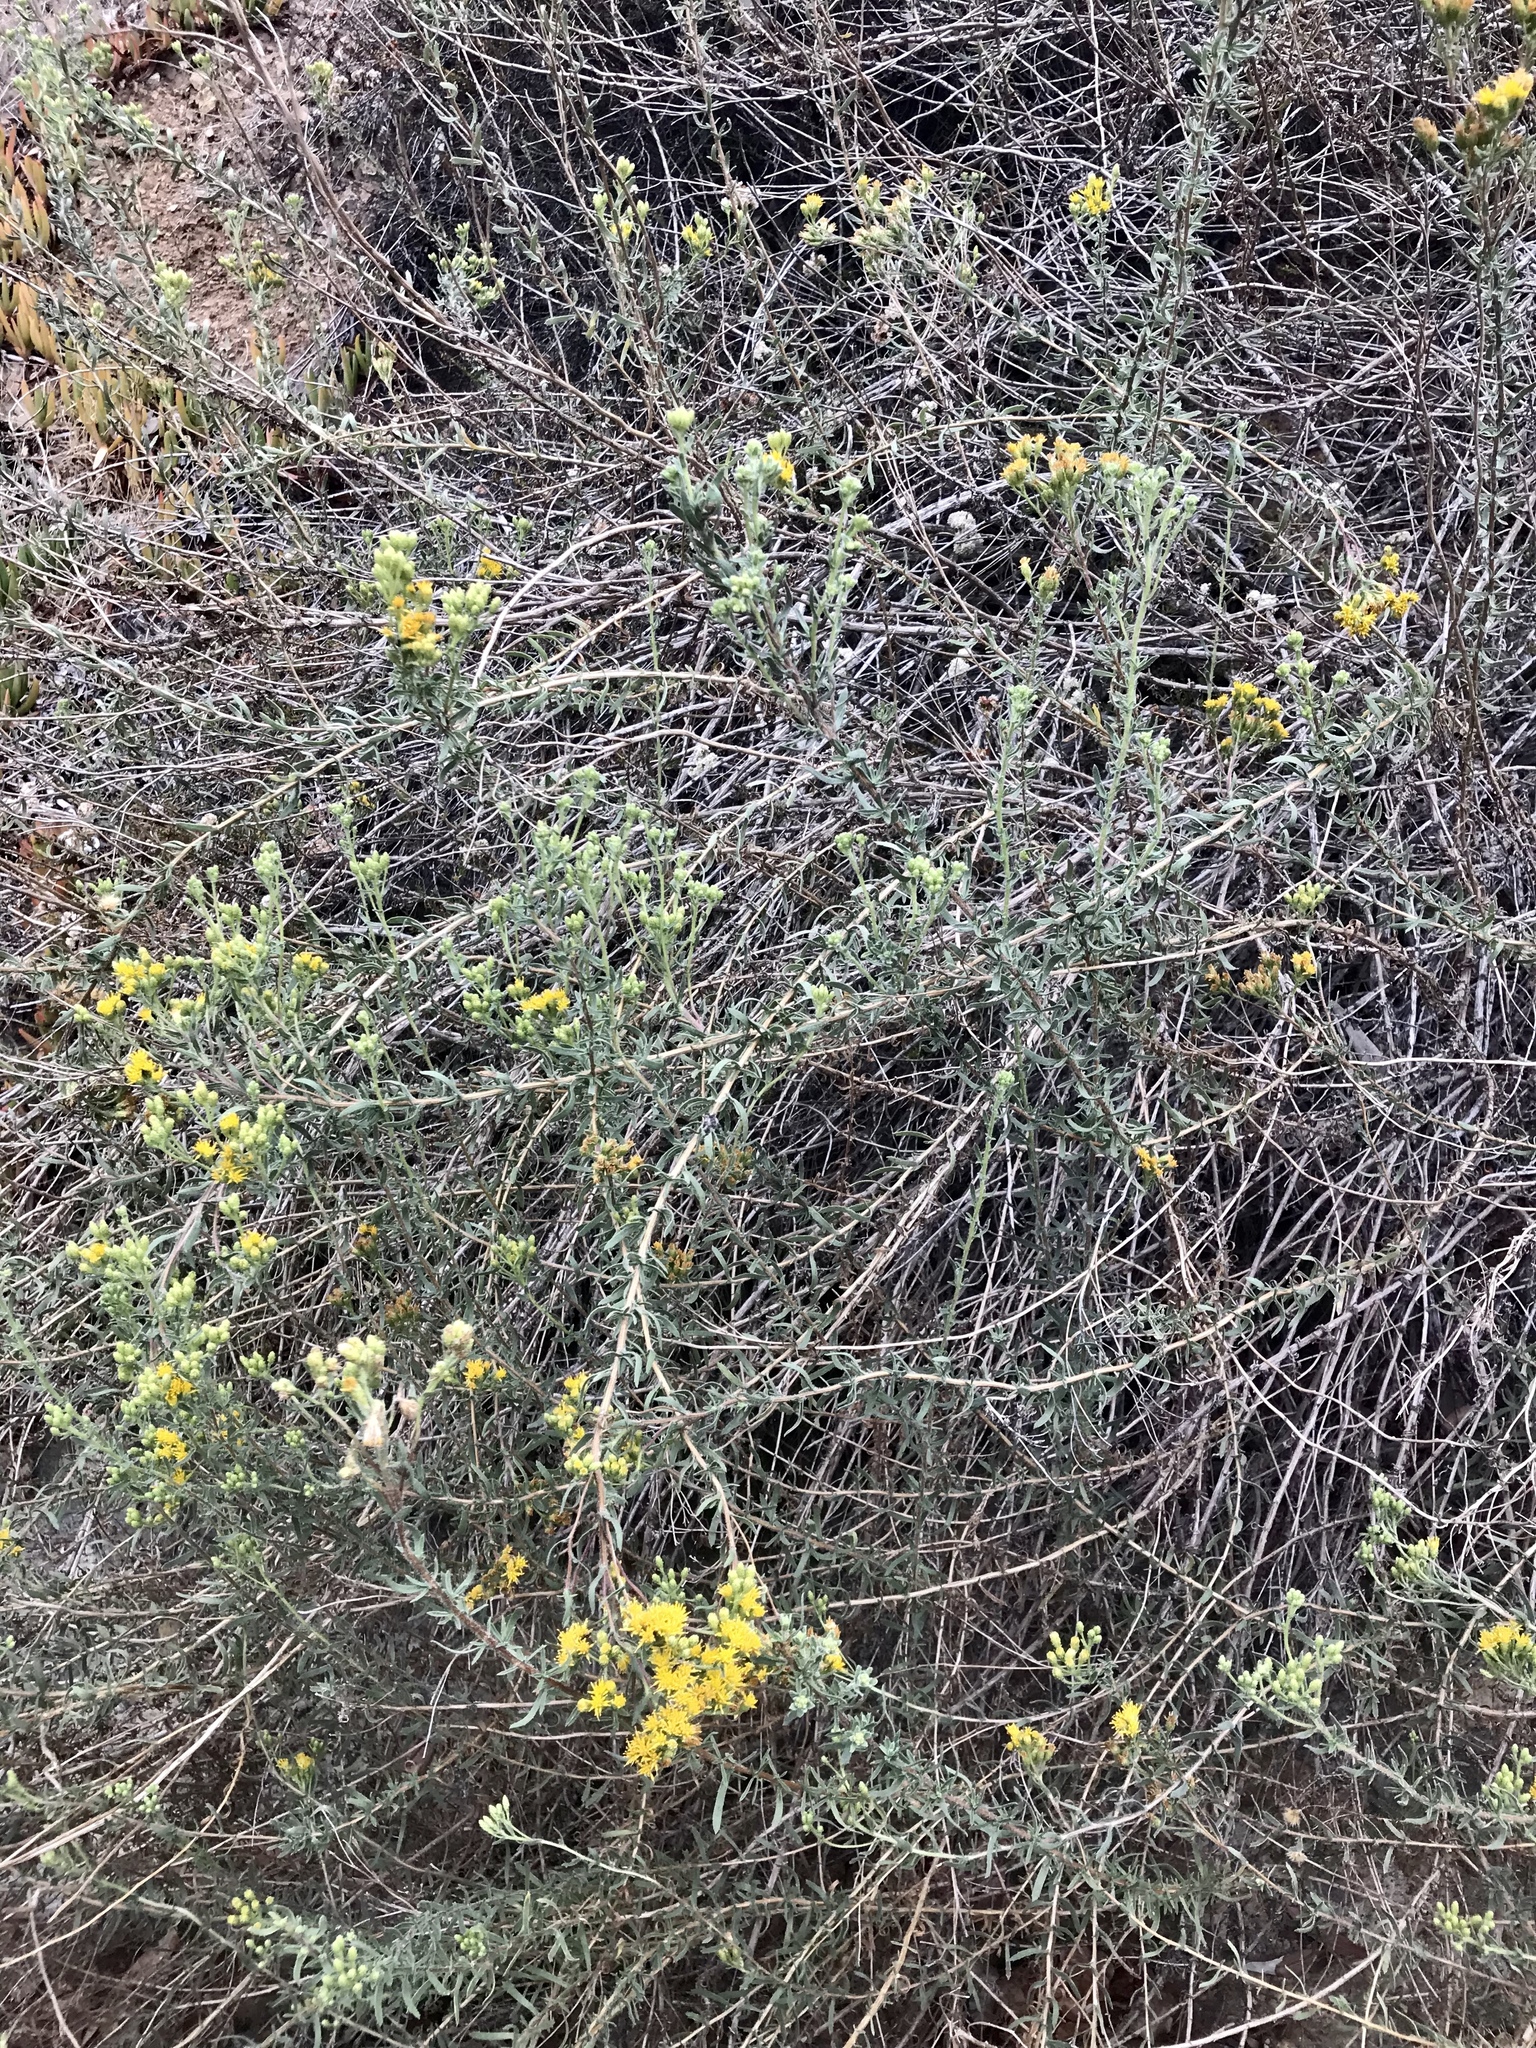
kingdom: Plantae
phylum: Tracheophyta
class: Magnoliopsida
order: Asterales
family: Asteraceae
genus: Isocoma
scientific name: Isocoma menziesii
